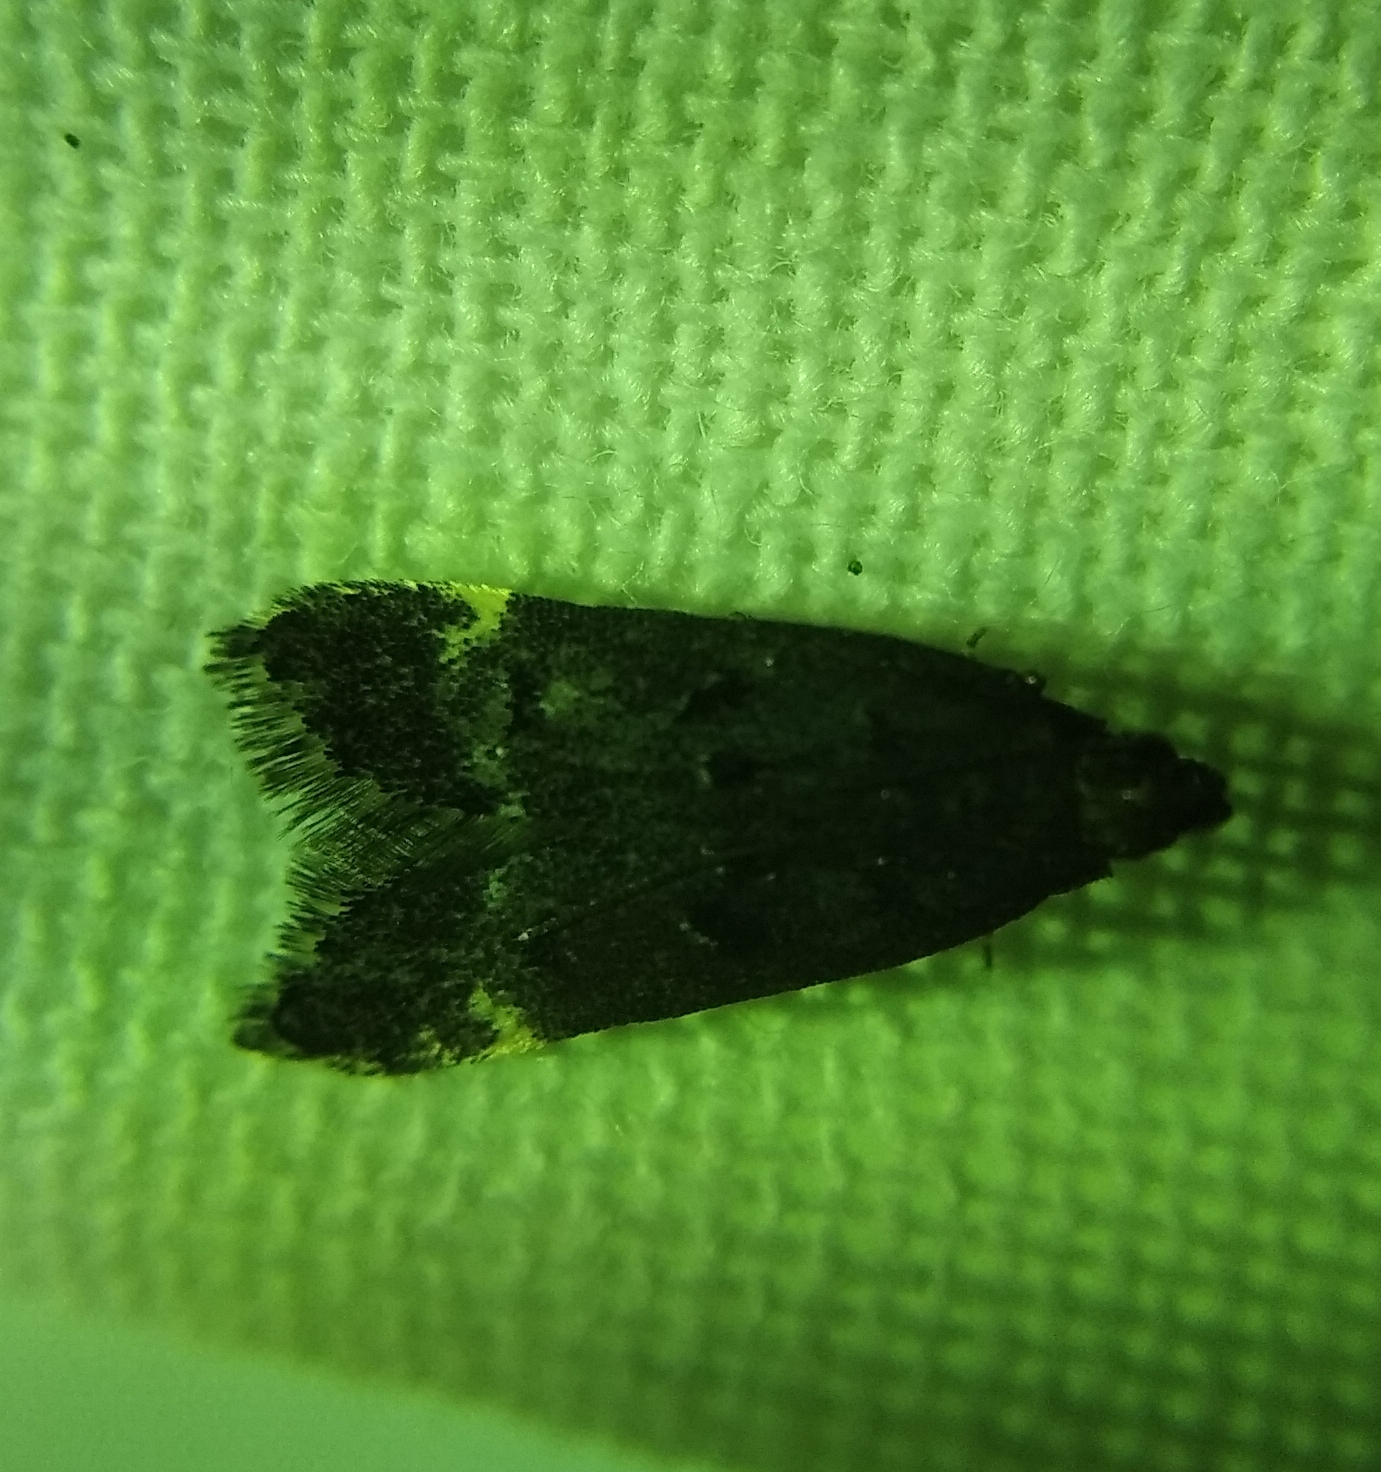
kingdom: Animalia
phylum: Arthropoda
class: Insecta
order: Lepidoptera
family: Gelechiidae
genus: Acanthophila
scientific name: Acanthophila alacella
